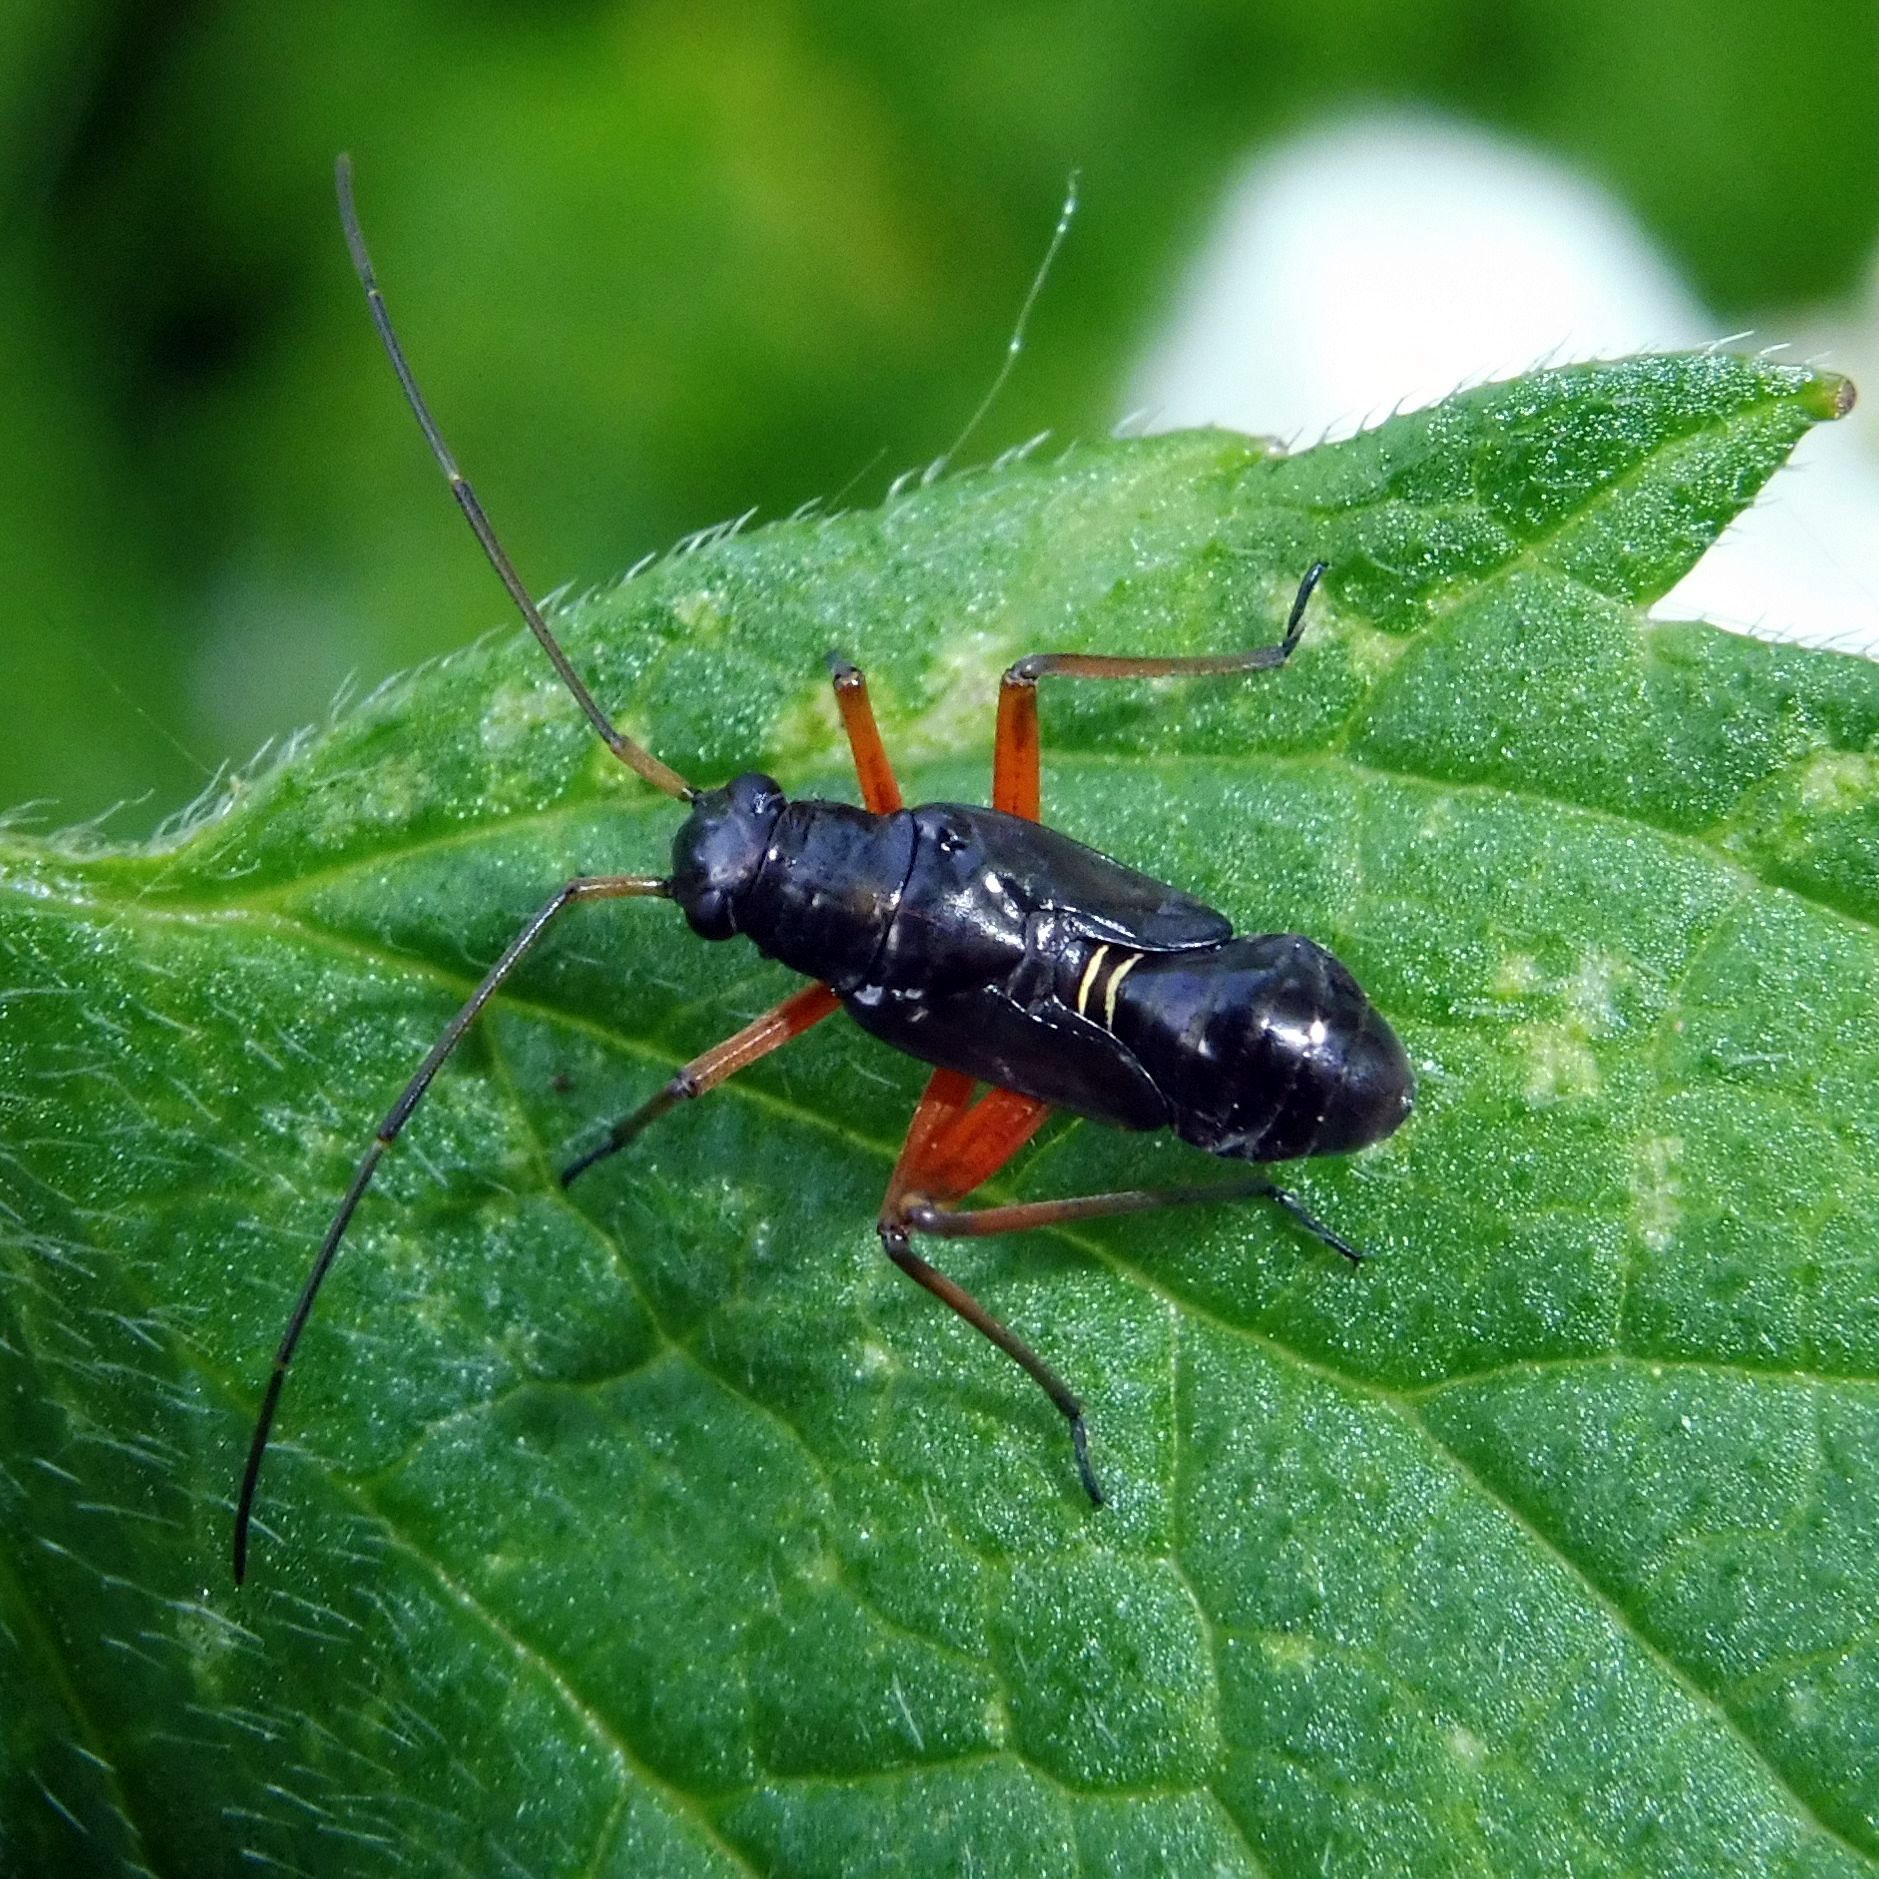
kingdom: Animalia
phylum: Arthropoda
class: Insecta
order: Hemiptera
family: Miridae
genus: Miris
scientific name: Miris striatus
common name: Fine streaked bugkin
